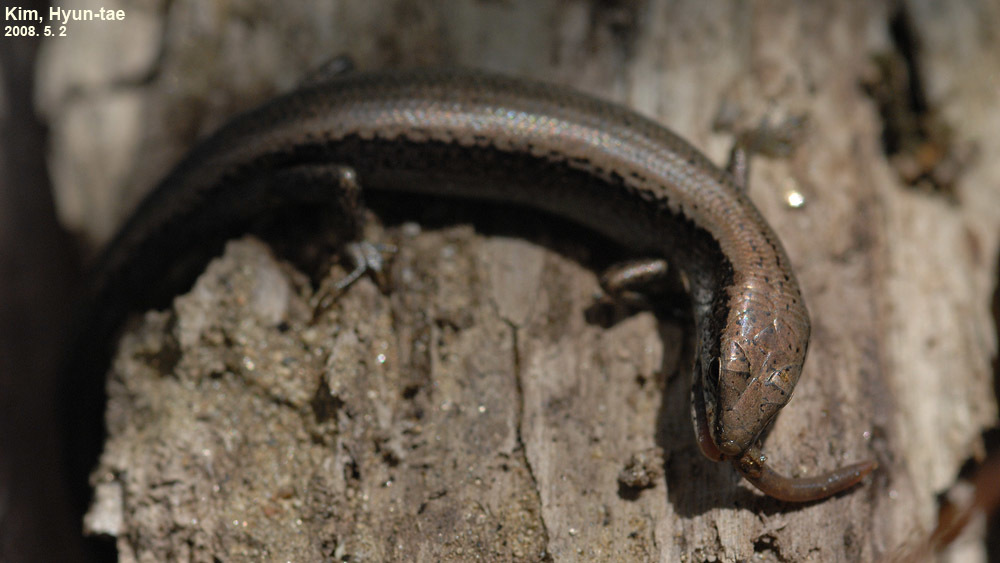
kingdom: Animalia
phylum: Chordata
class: Squamata
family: Scincidae
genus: Scincella
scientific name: Scincella vandenburghi
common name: Tsushima smooth skink
